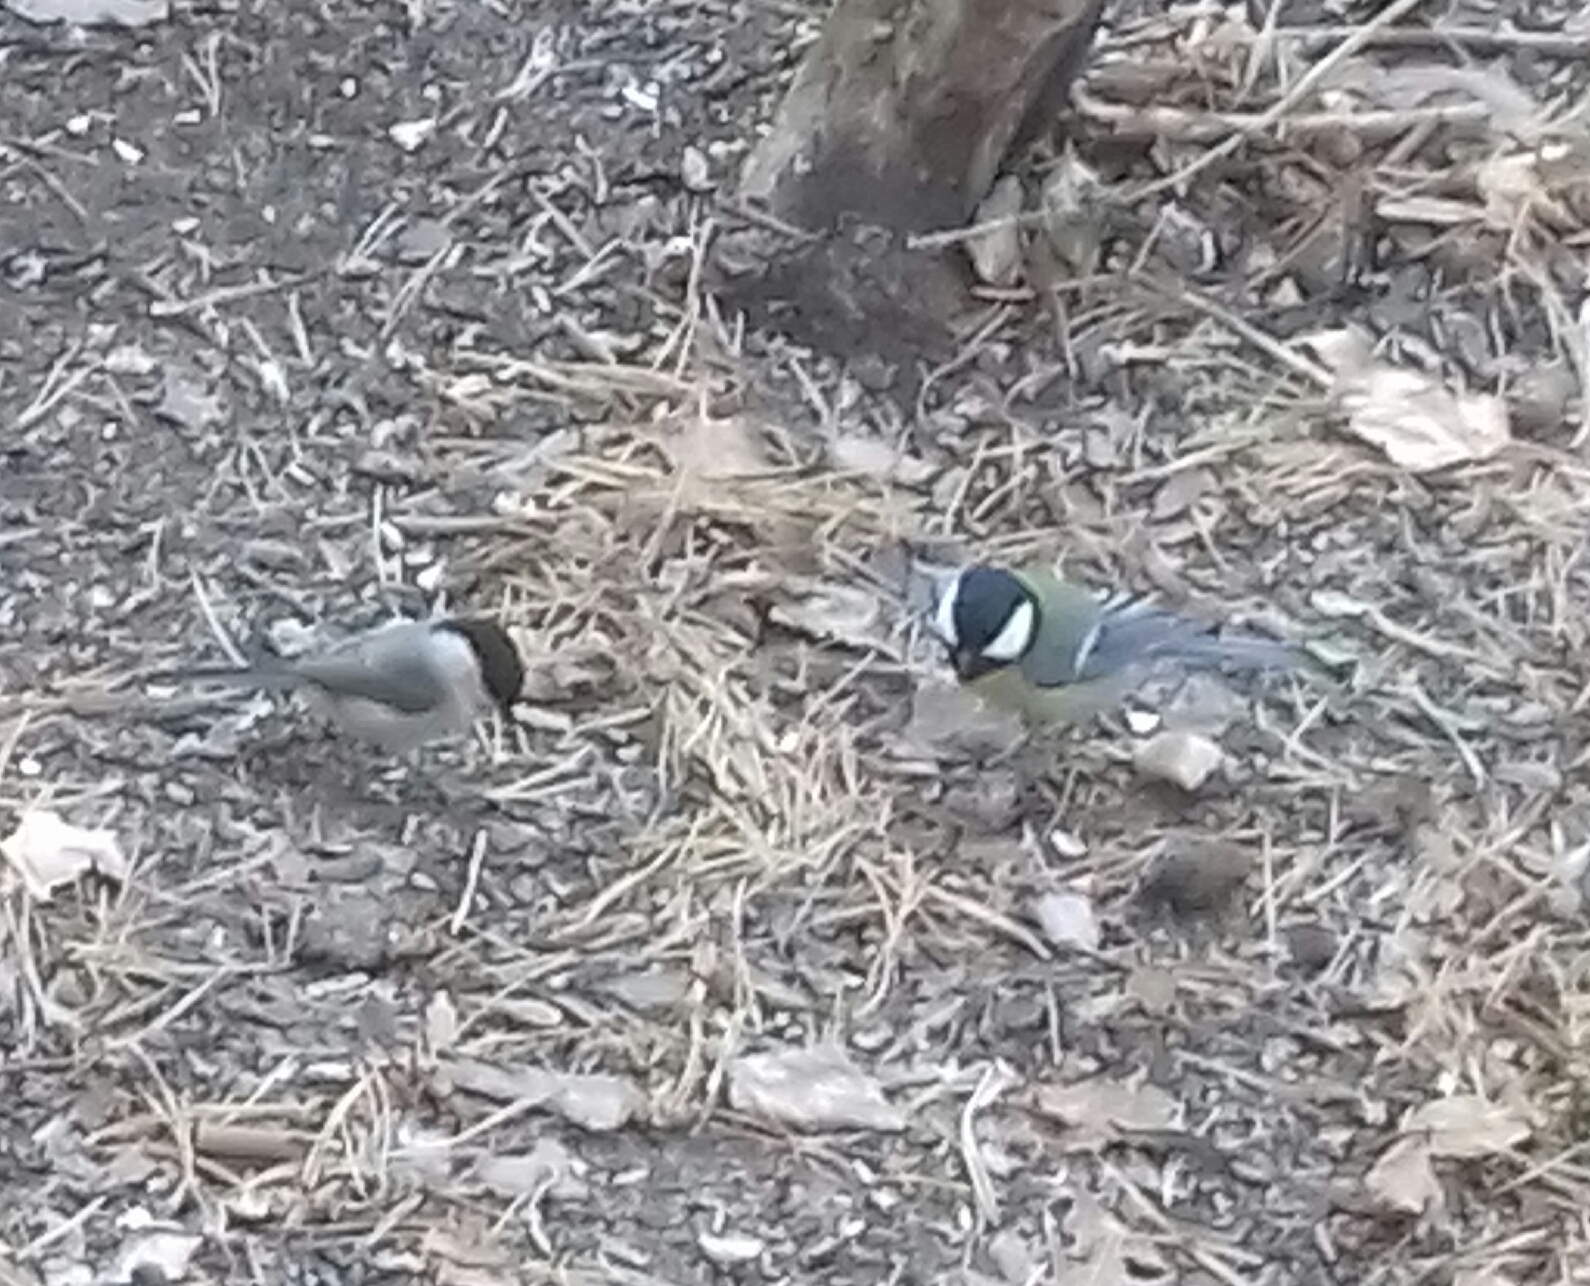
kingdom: Animalia
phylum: Chordata
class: Aves
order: Passeriformes
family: Paridae
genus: Parus
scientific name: Parus major
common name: Great tit
